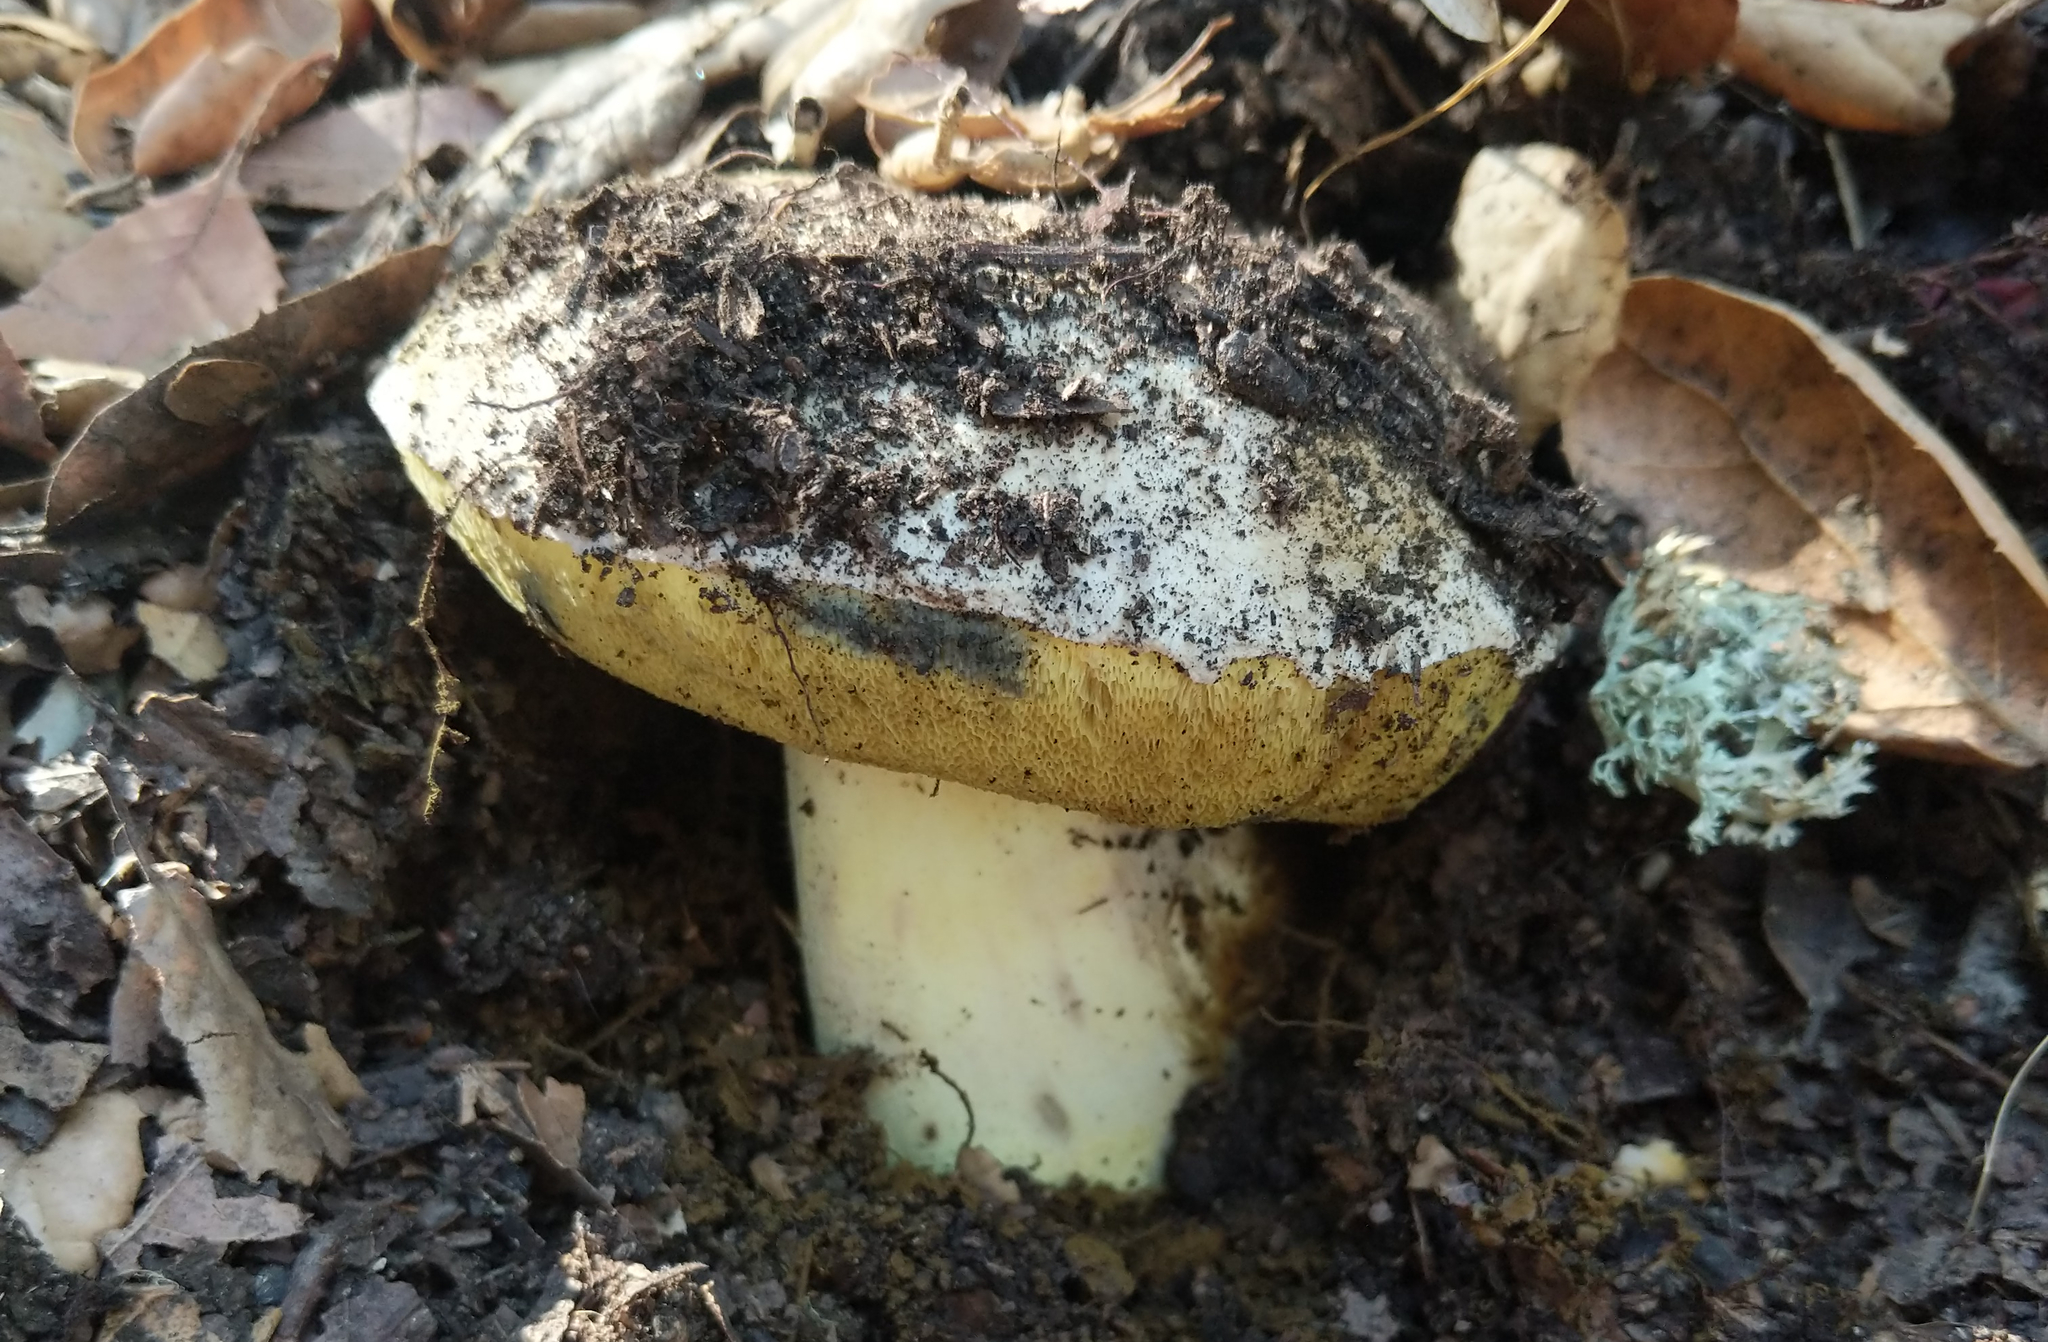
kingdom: Fungi
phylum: Basidiomycota
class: Agaricomycetes
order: Boletales
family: Boletaceae
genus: Caloboletus
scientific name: Caloboletus marshii
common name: Ben's bitter bolete
